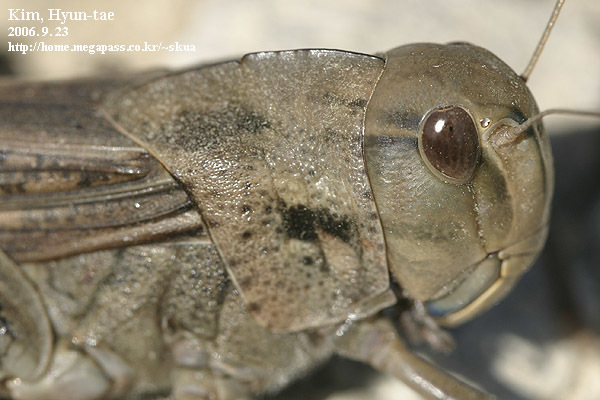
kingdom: Animalia
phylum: Arthropoda
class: Insecta
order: Orthoptera
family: Acrididae
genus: Locusta
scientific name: Locusta migratoria
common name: Migratory locust
